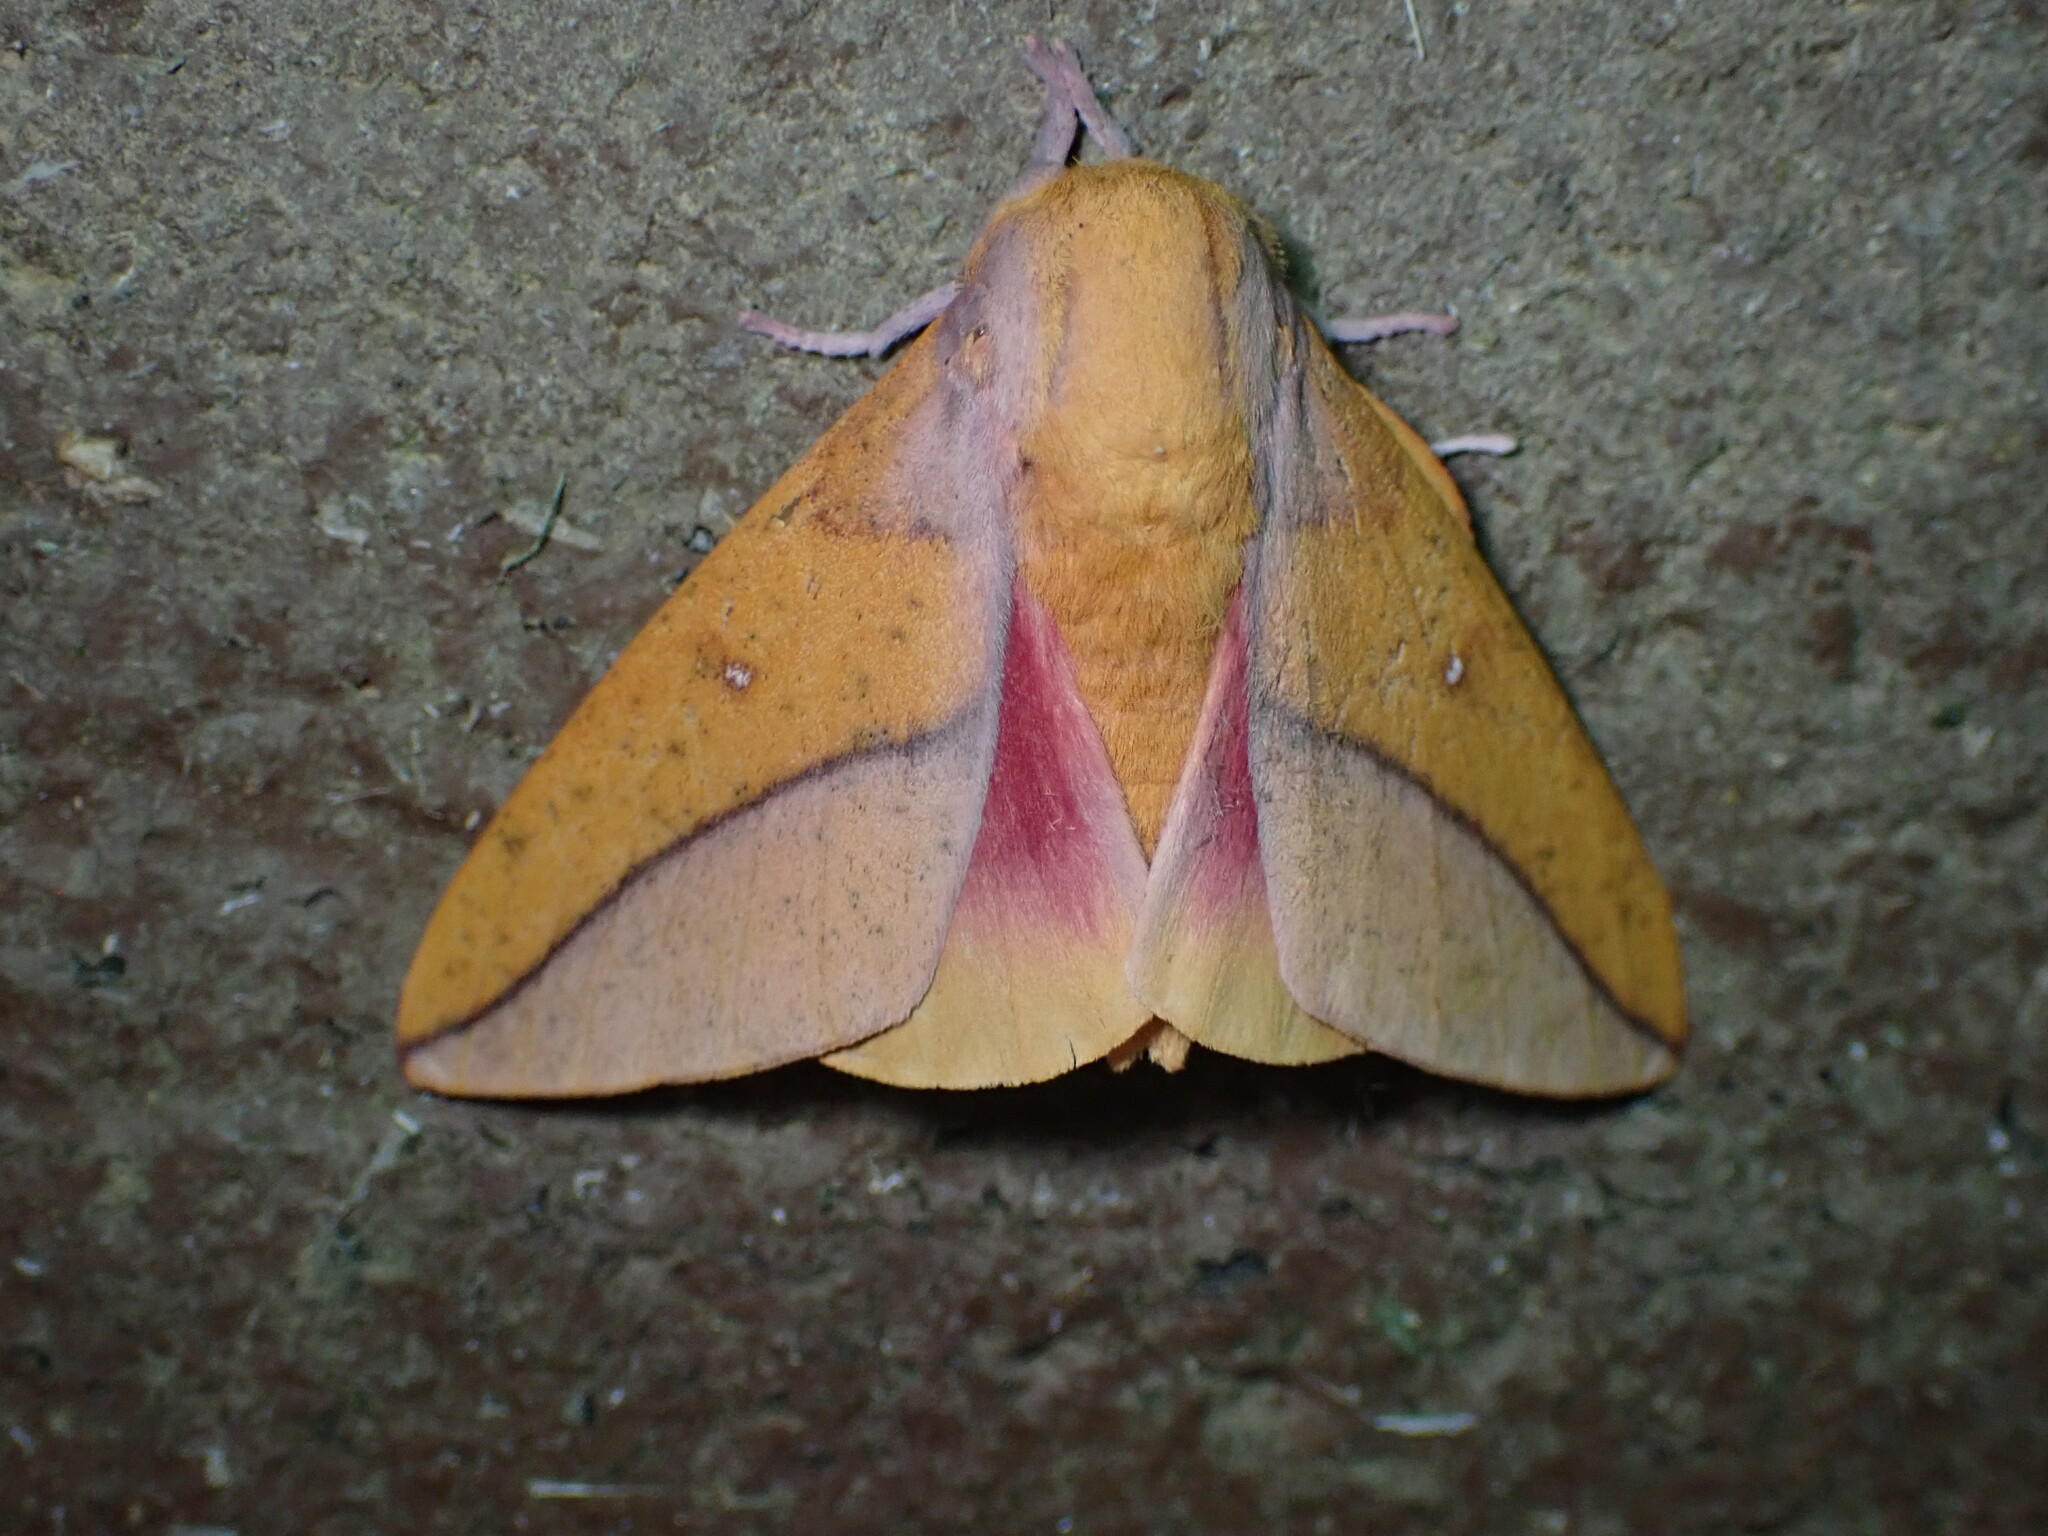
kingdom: Animalia
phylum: Arthropoda
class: Insecta
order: Lepidoptera
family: Saturniidae
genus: Syssphinx
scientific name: Syssphinx bisecta
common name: Bisected honey locust moth
